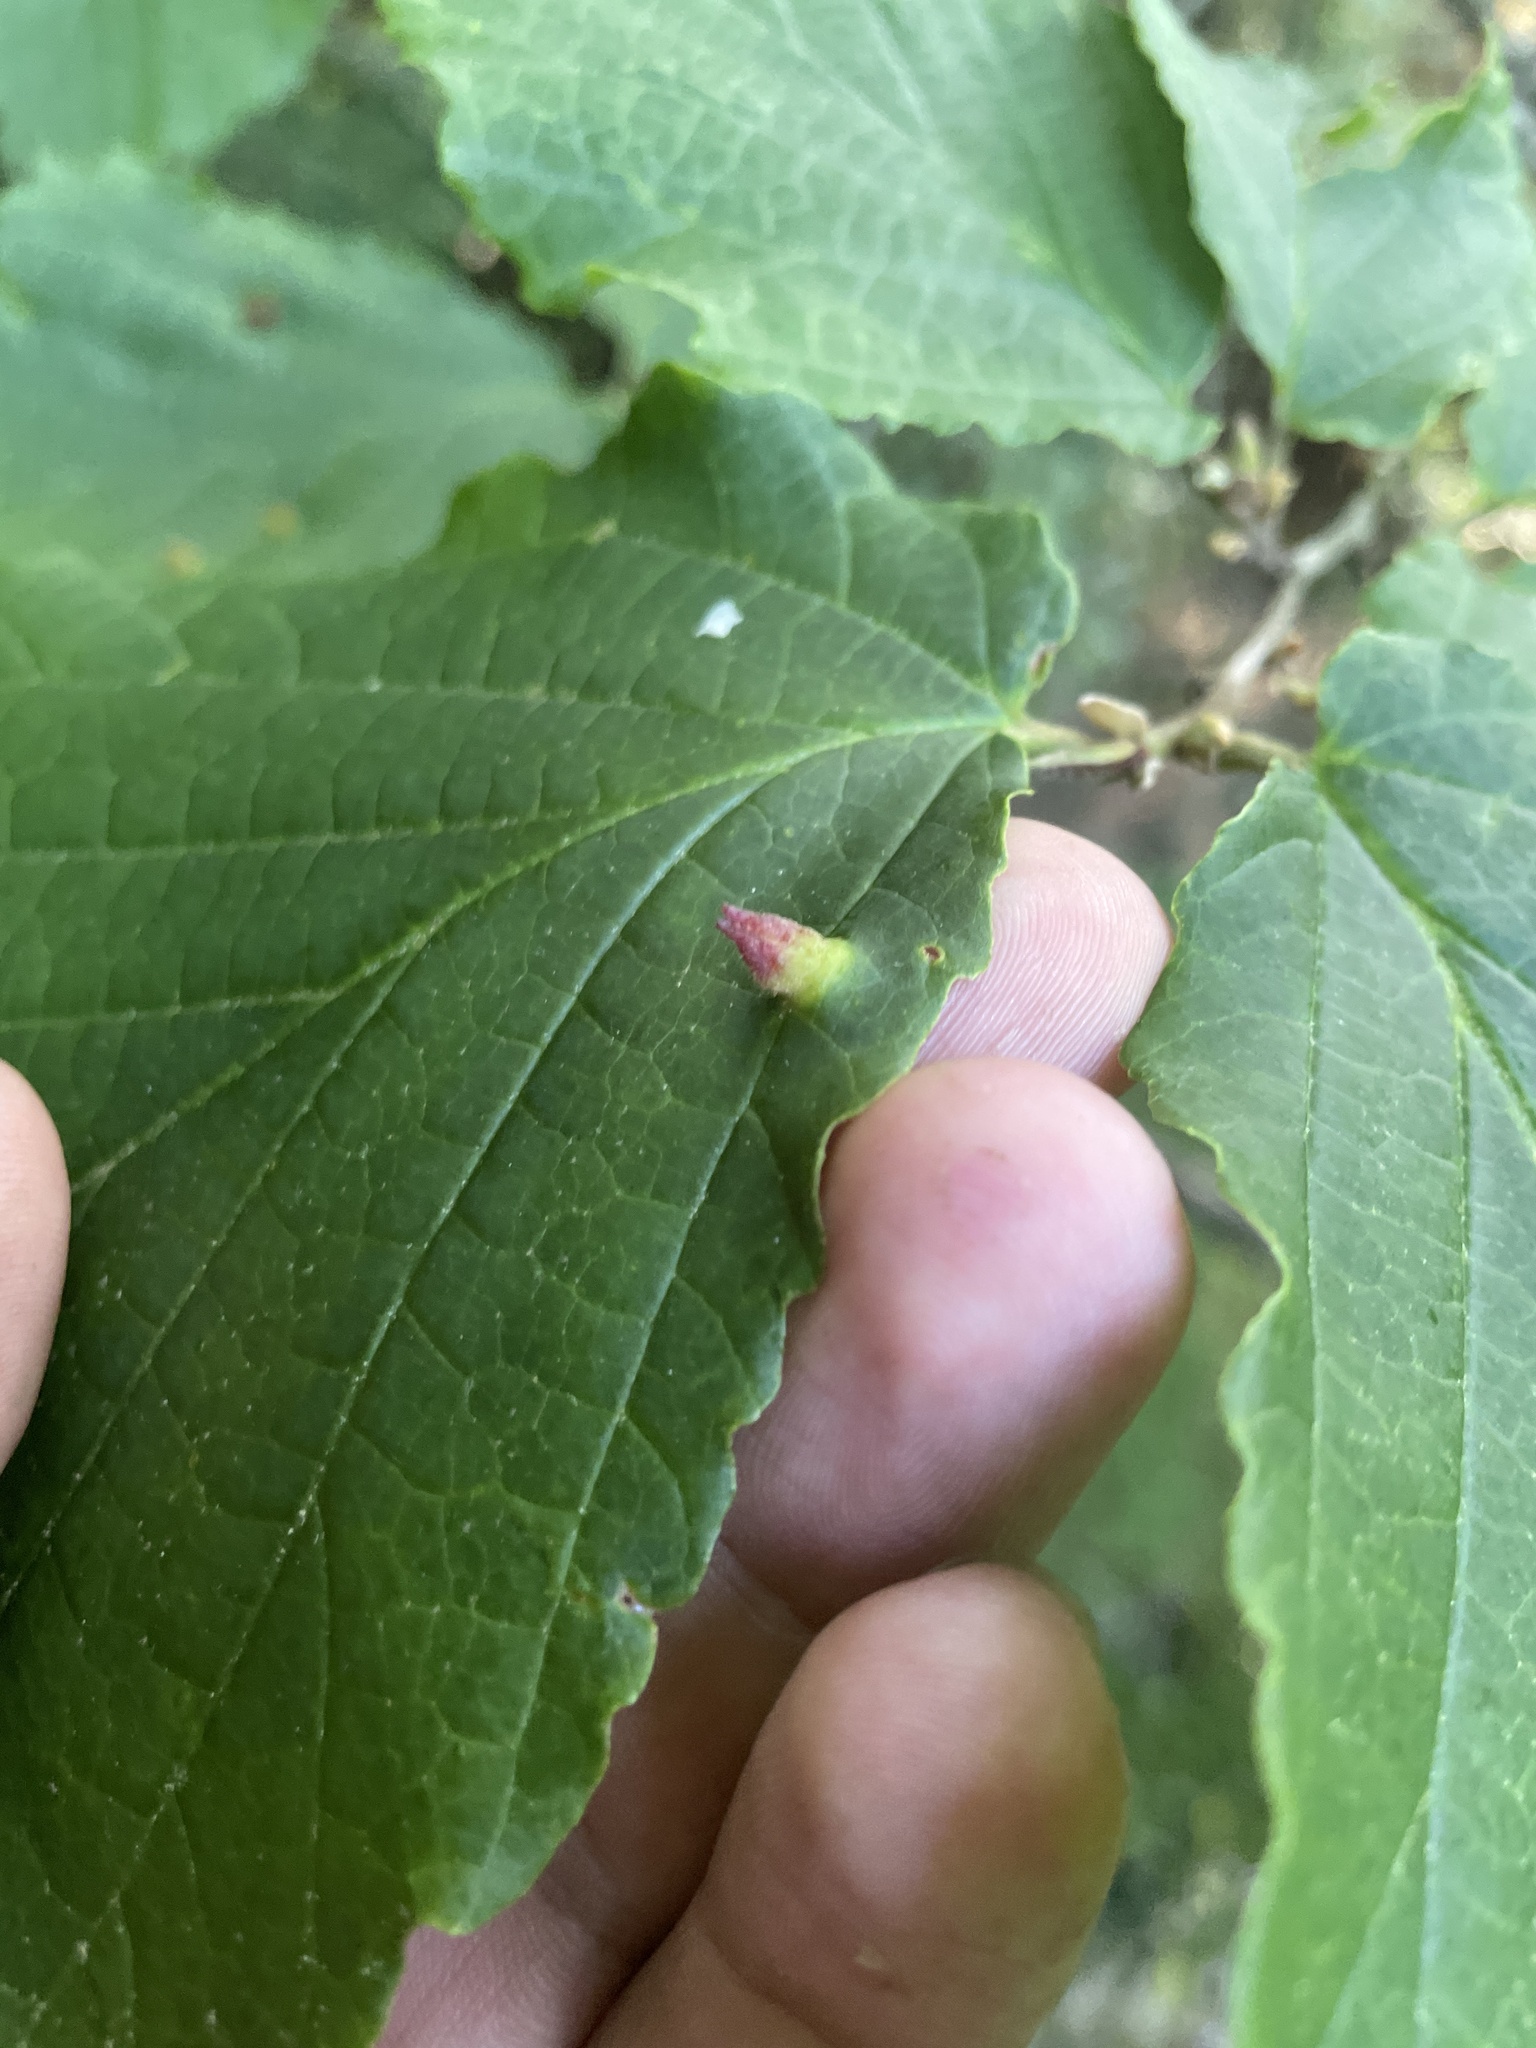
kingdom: Animalia
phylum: Arthropoda
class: Insecta
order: Hemiptera
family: Aphididae
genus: Hormaphis
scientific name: Hormaphis hamamelidis
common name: Witch-hazel cone gall aphid
